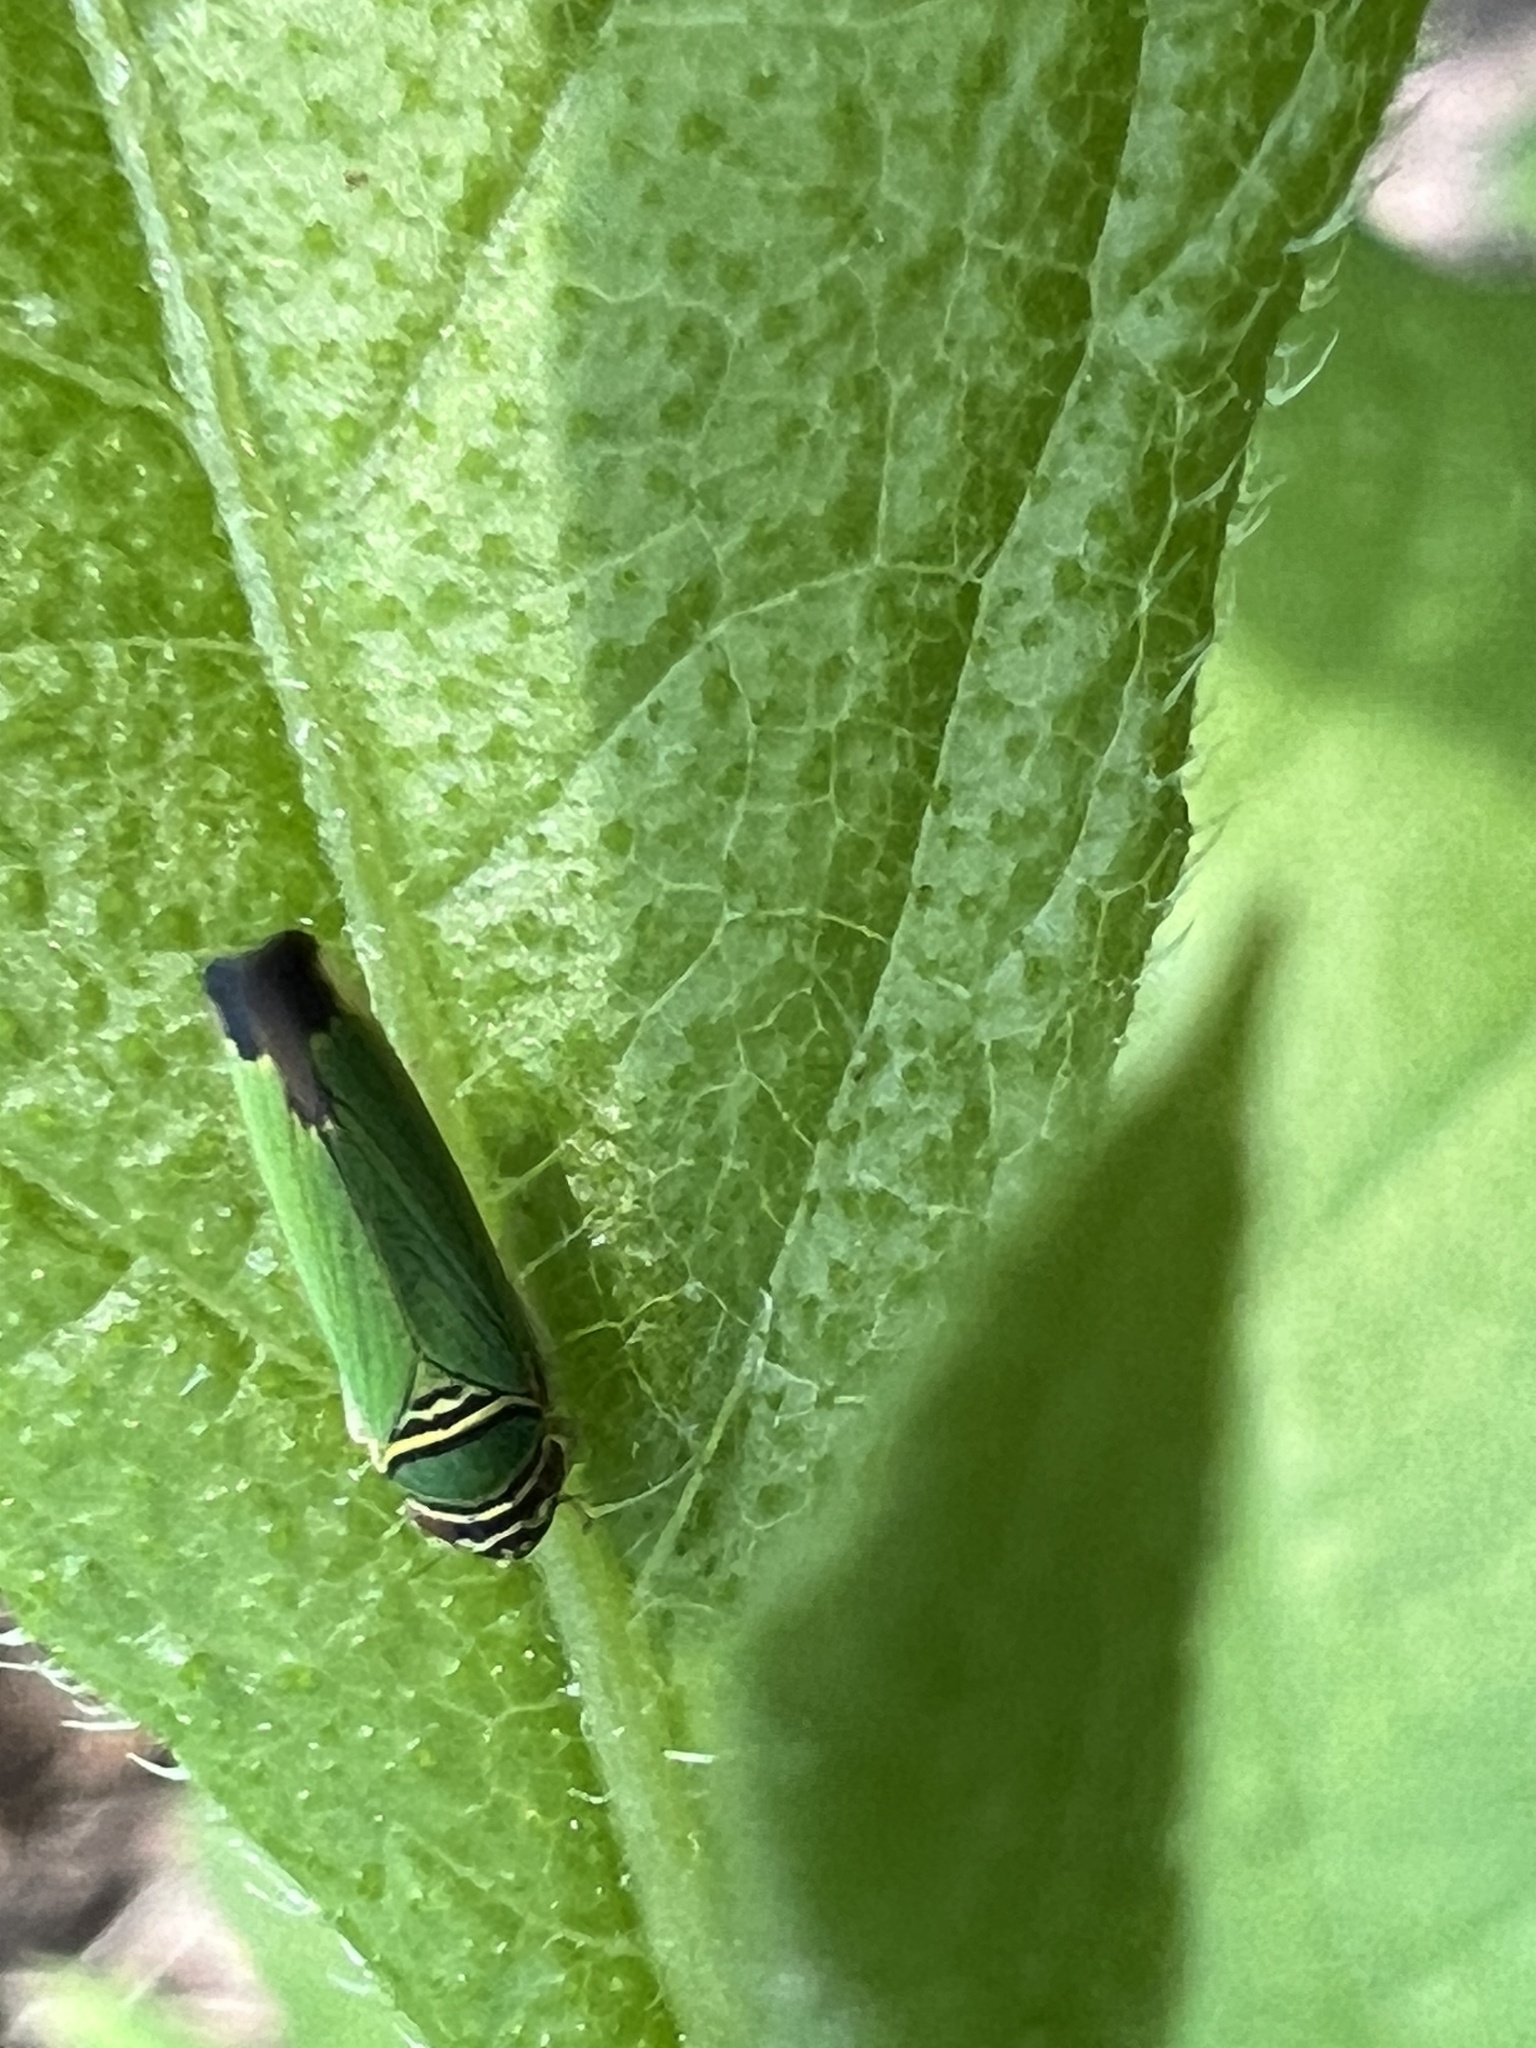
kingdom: Animalia
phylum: Arthropoda
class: Insecta
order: Hemiptera
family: Cicadellidae
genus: Tylozygus
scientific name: Tylozygus geometricus
